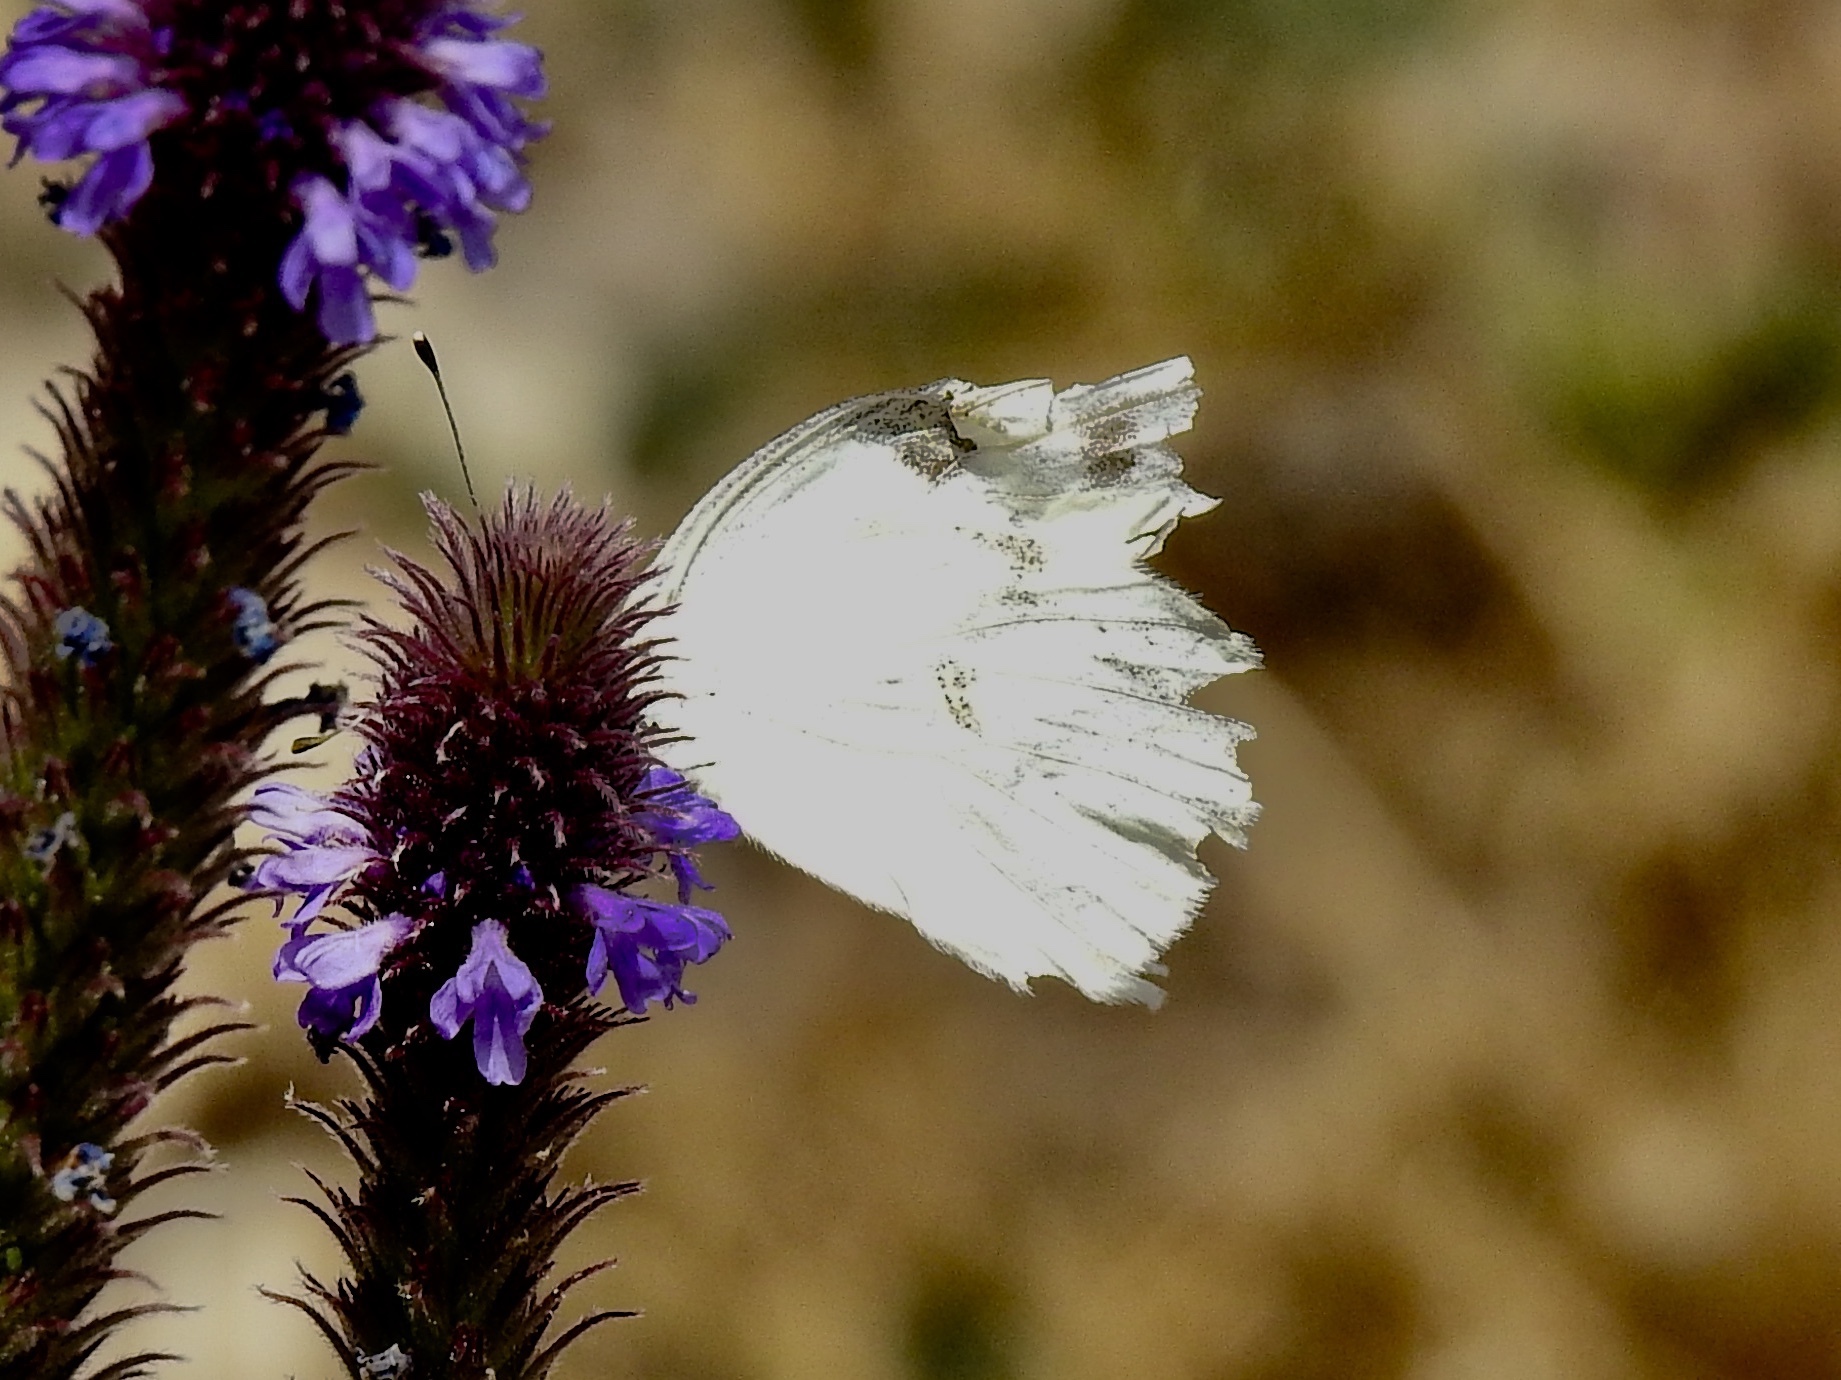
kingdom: Animalia
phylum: Arthropoda
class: Insecta
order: Lepidoptera
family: Pieridae
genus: Pontia
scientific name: Pontia protodice
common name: Checkered white
